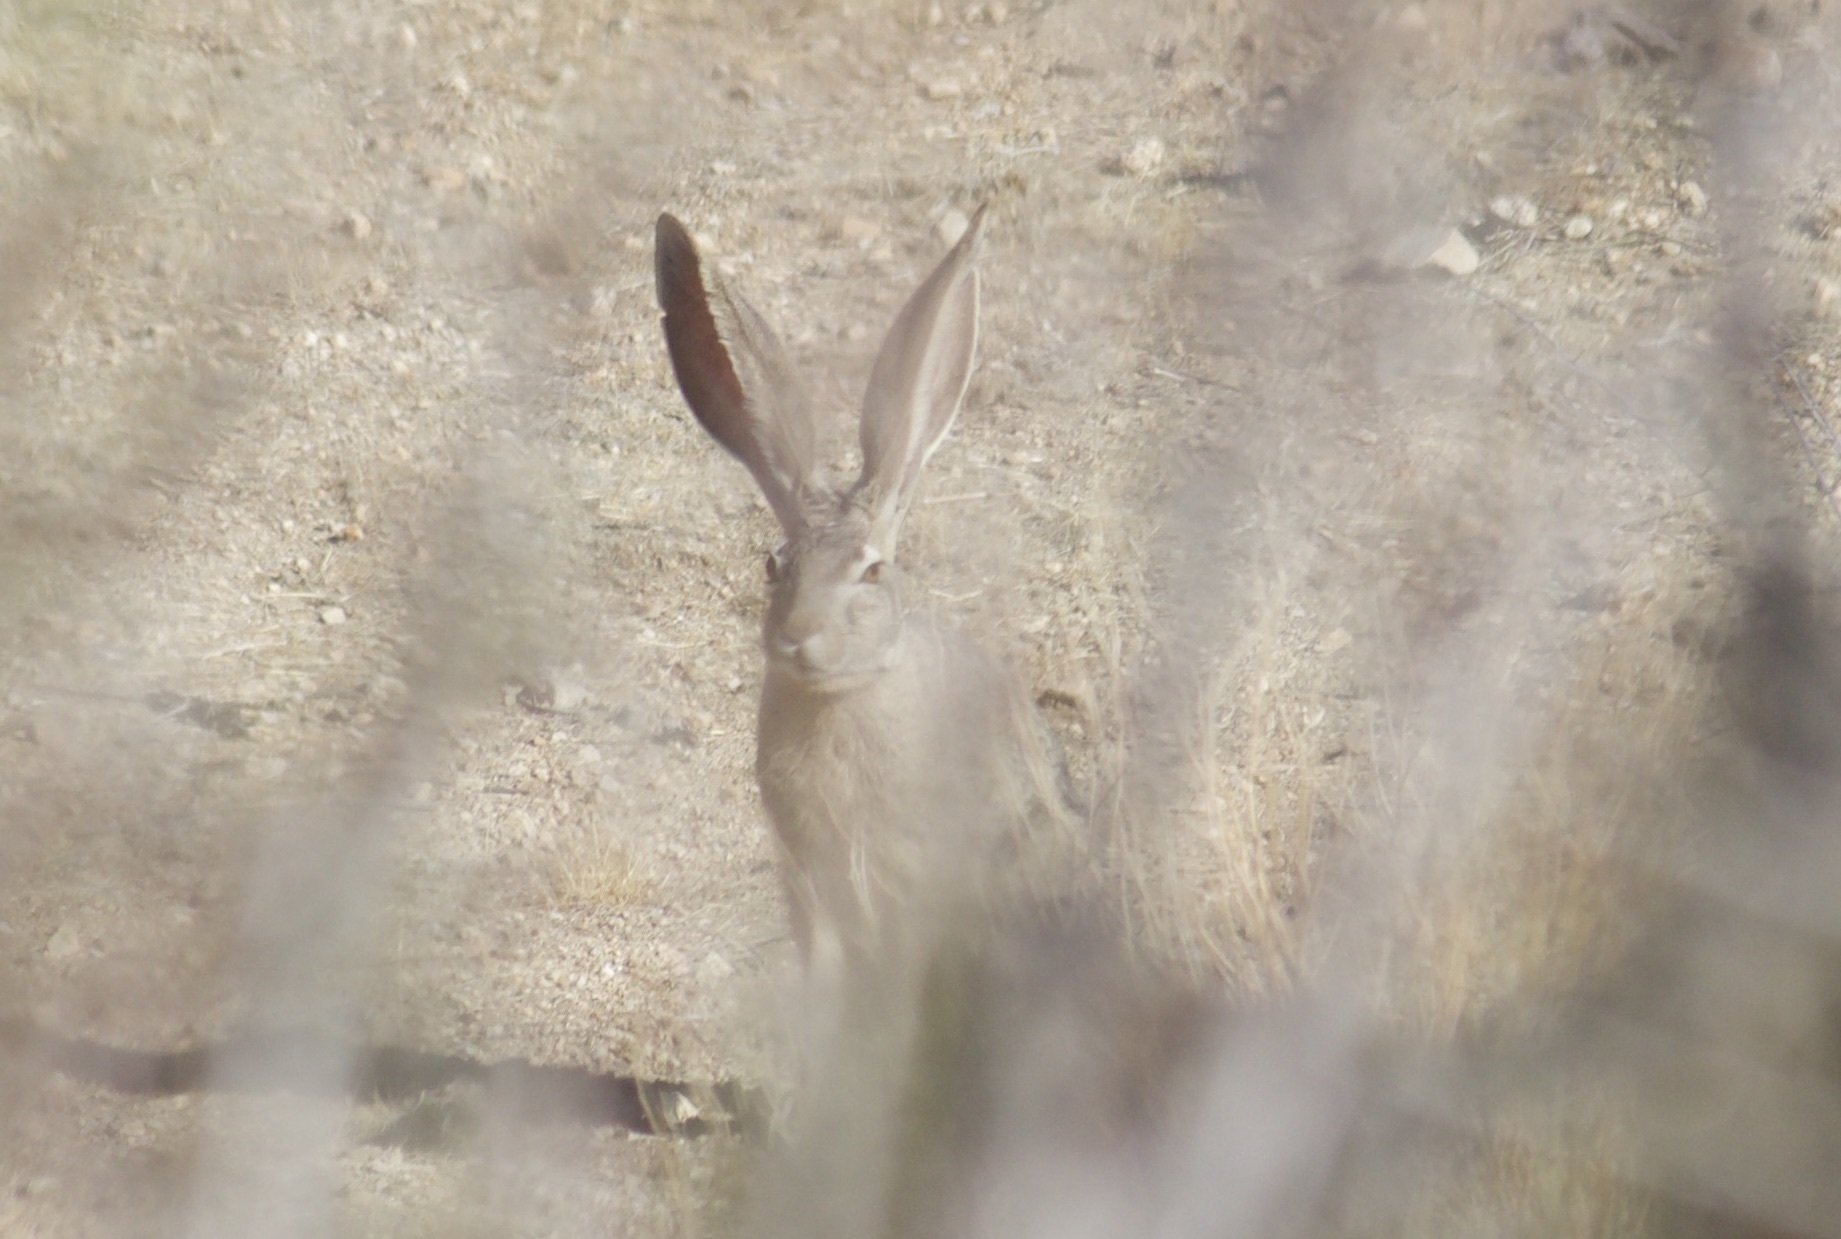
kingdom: Animalia
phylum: Chordata
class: Mammalia
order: Lagomorpha
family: Leporidae
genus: Lepus
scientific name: Lepus californicus
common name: Black-tailed jackrabbit
